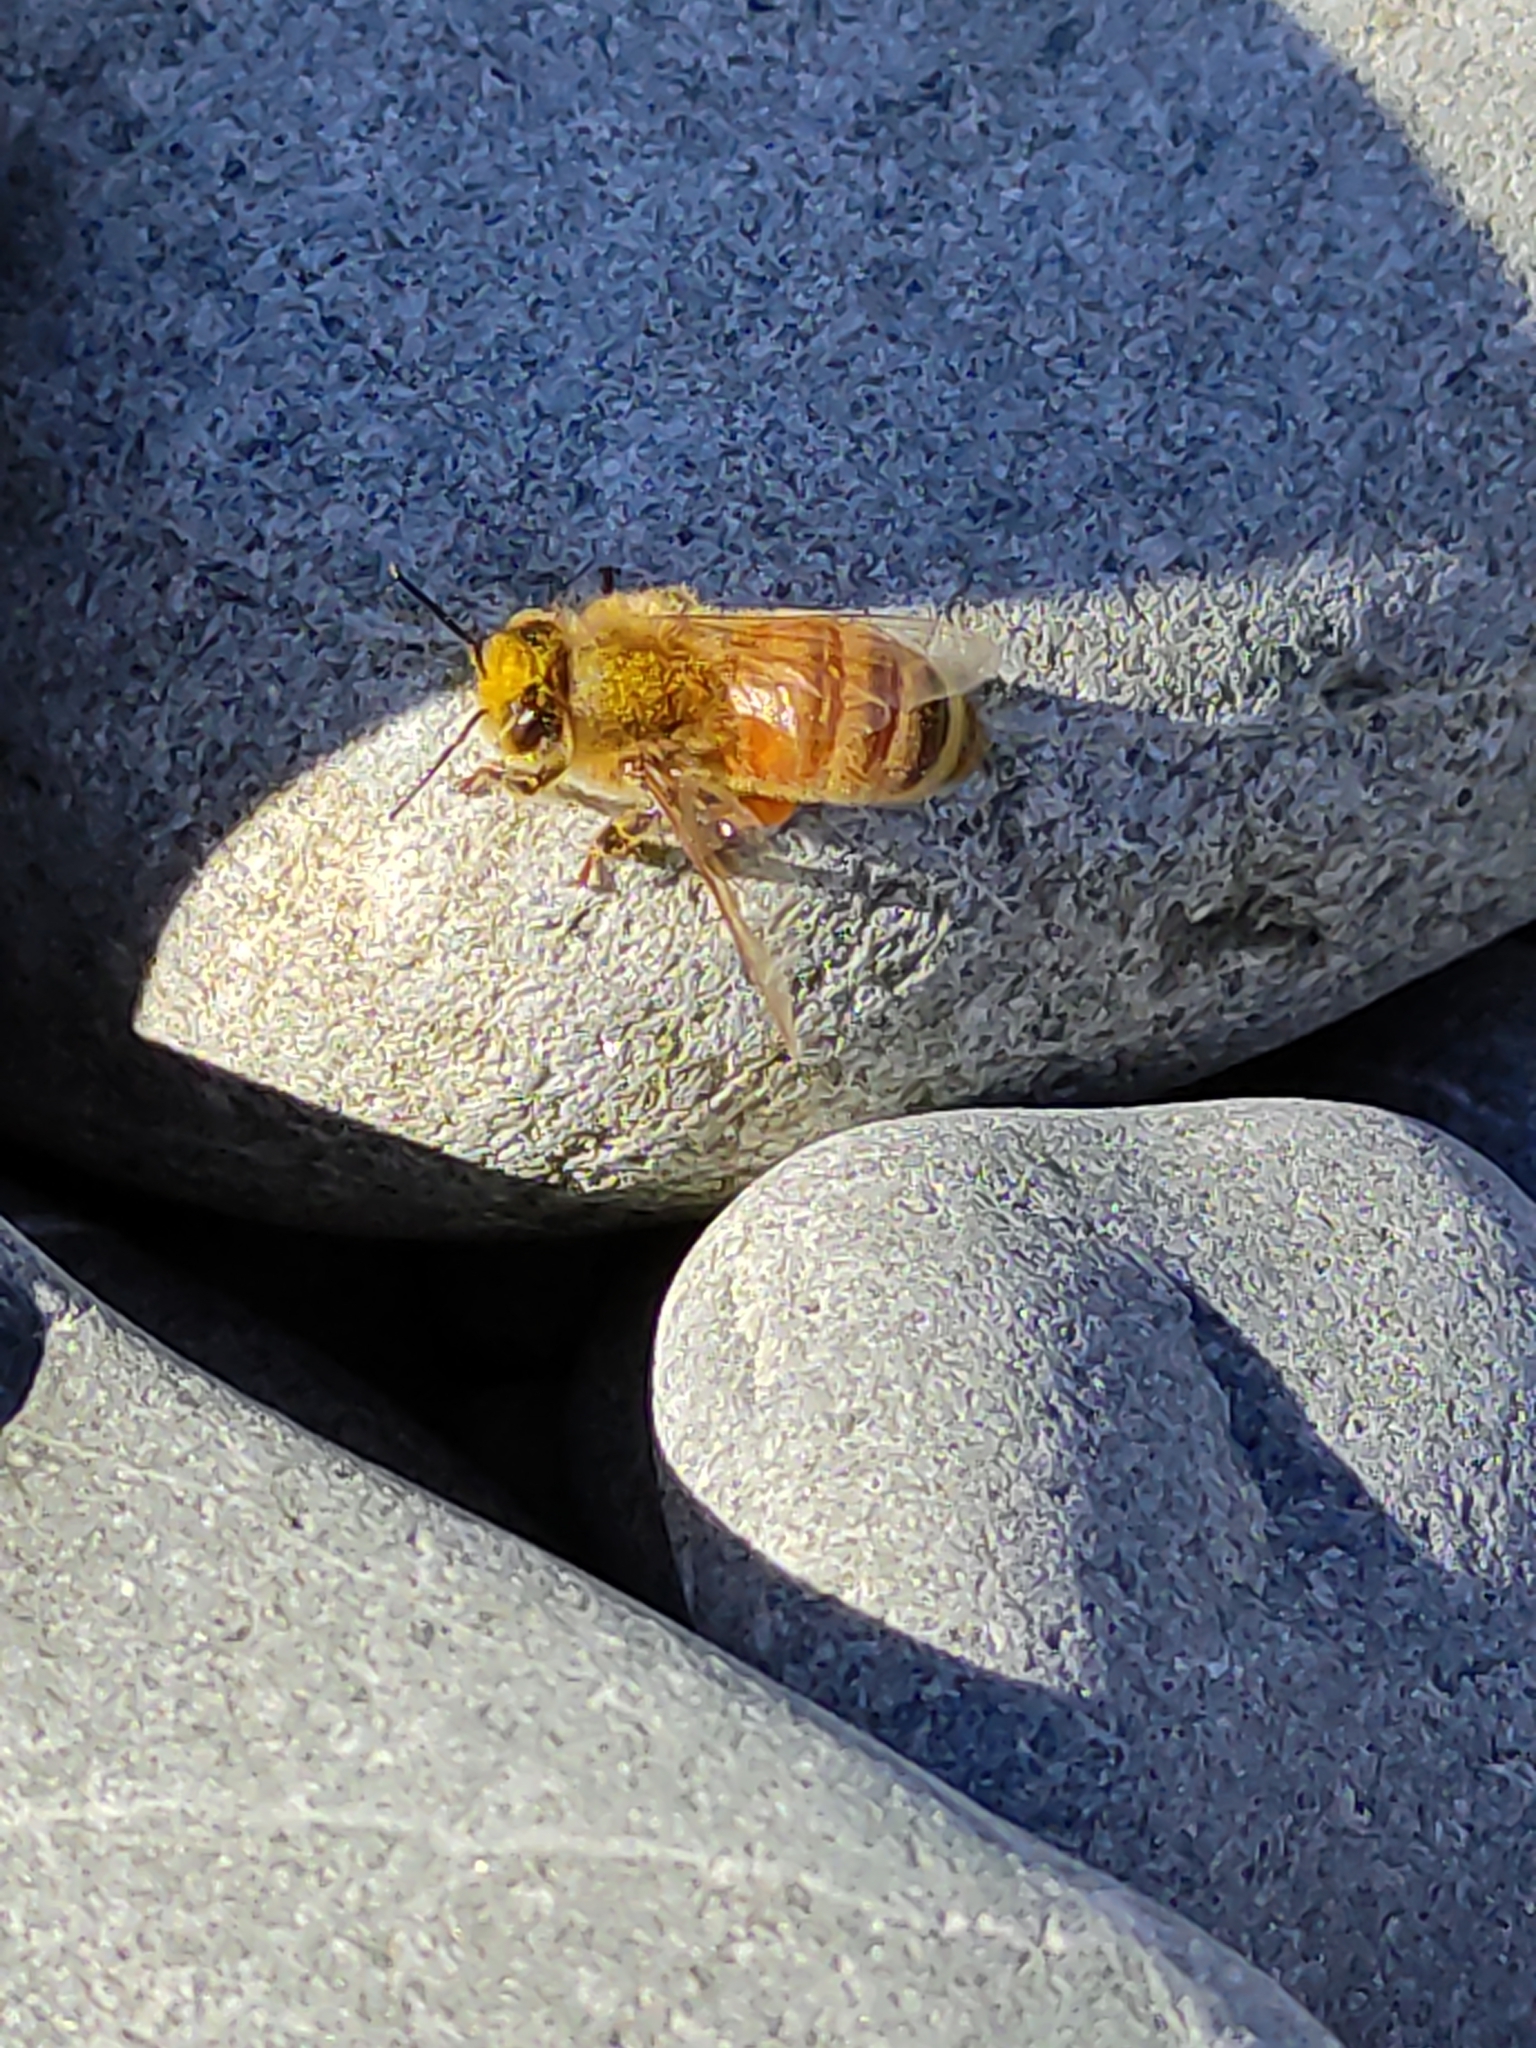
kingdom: Animalia
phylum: Arthropoda
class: Insecta
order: Hymenoptera
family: Apidae
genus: Apis
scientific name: Apis mellifera
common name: Honey bee
